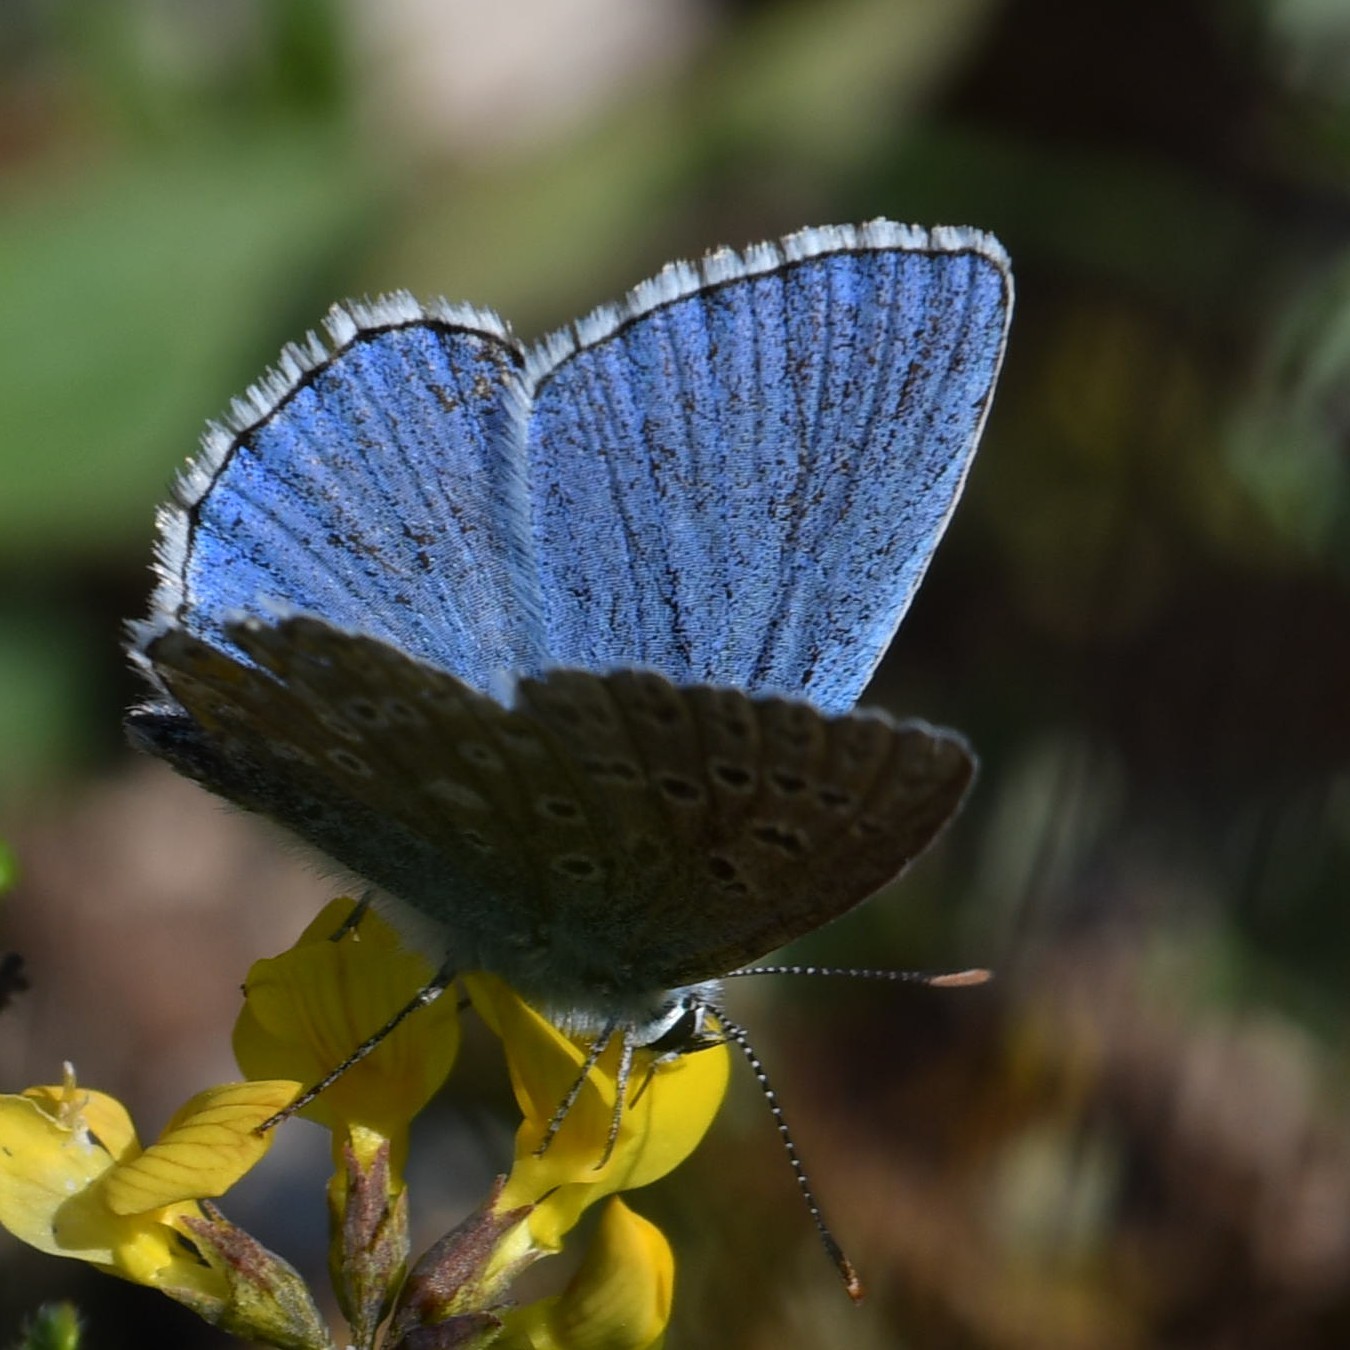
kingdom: Animalia
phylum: Arthropoda
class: Insecta
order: Lepidoptera
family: Lycaenidae
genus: Lysandra
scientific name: Lysandra bellargus
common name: Adonis blue
